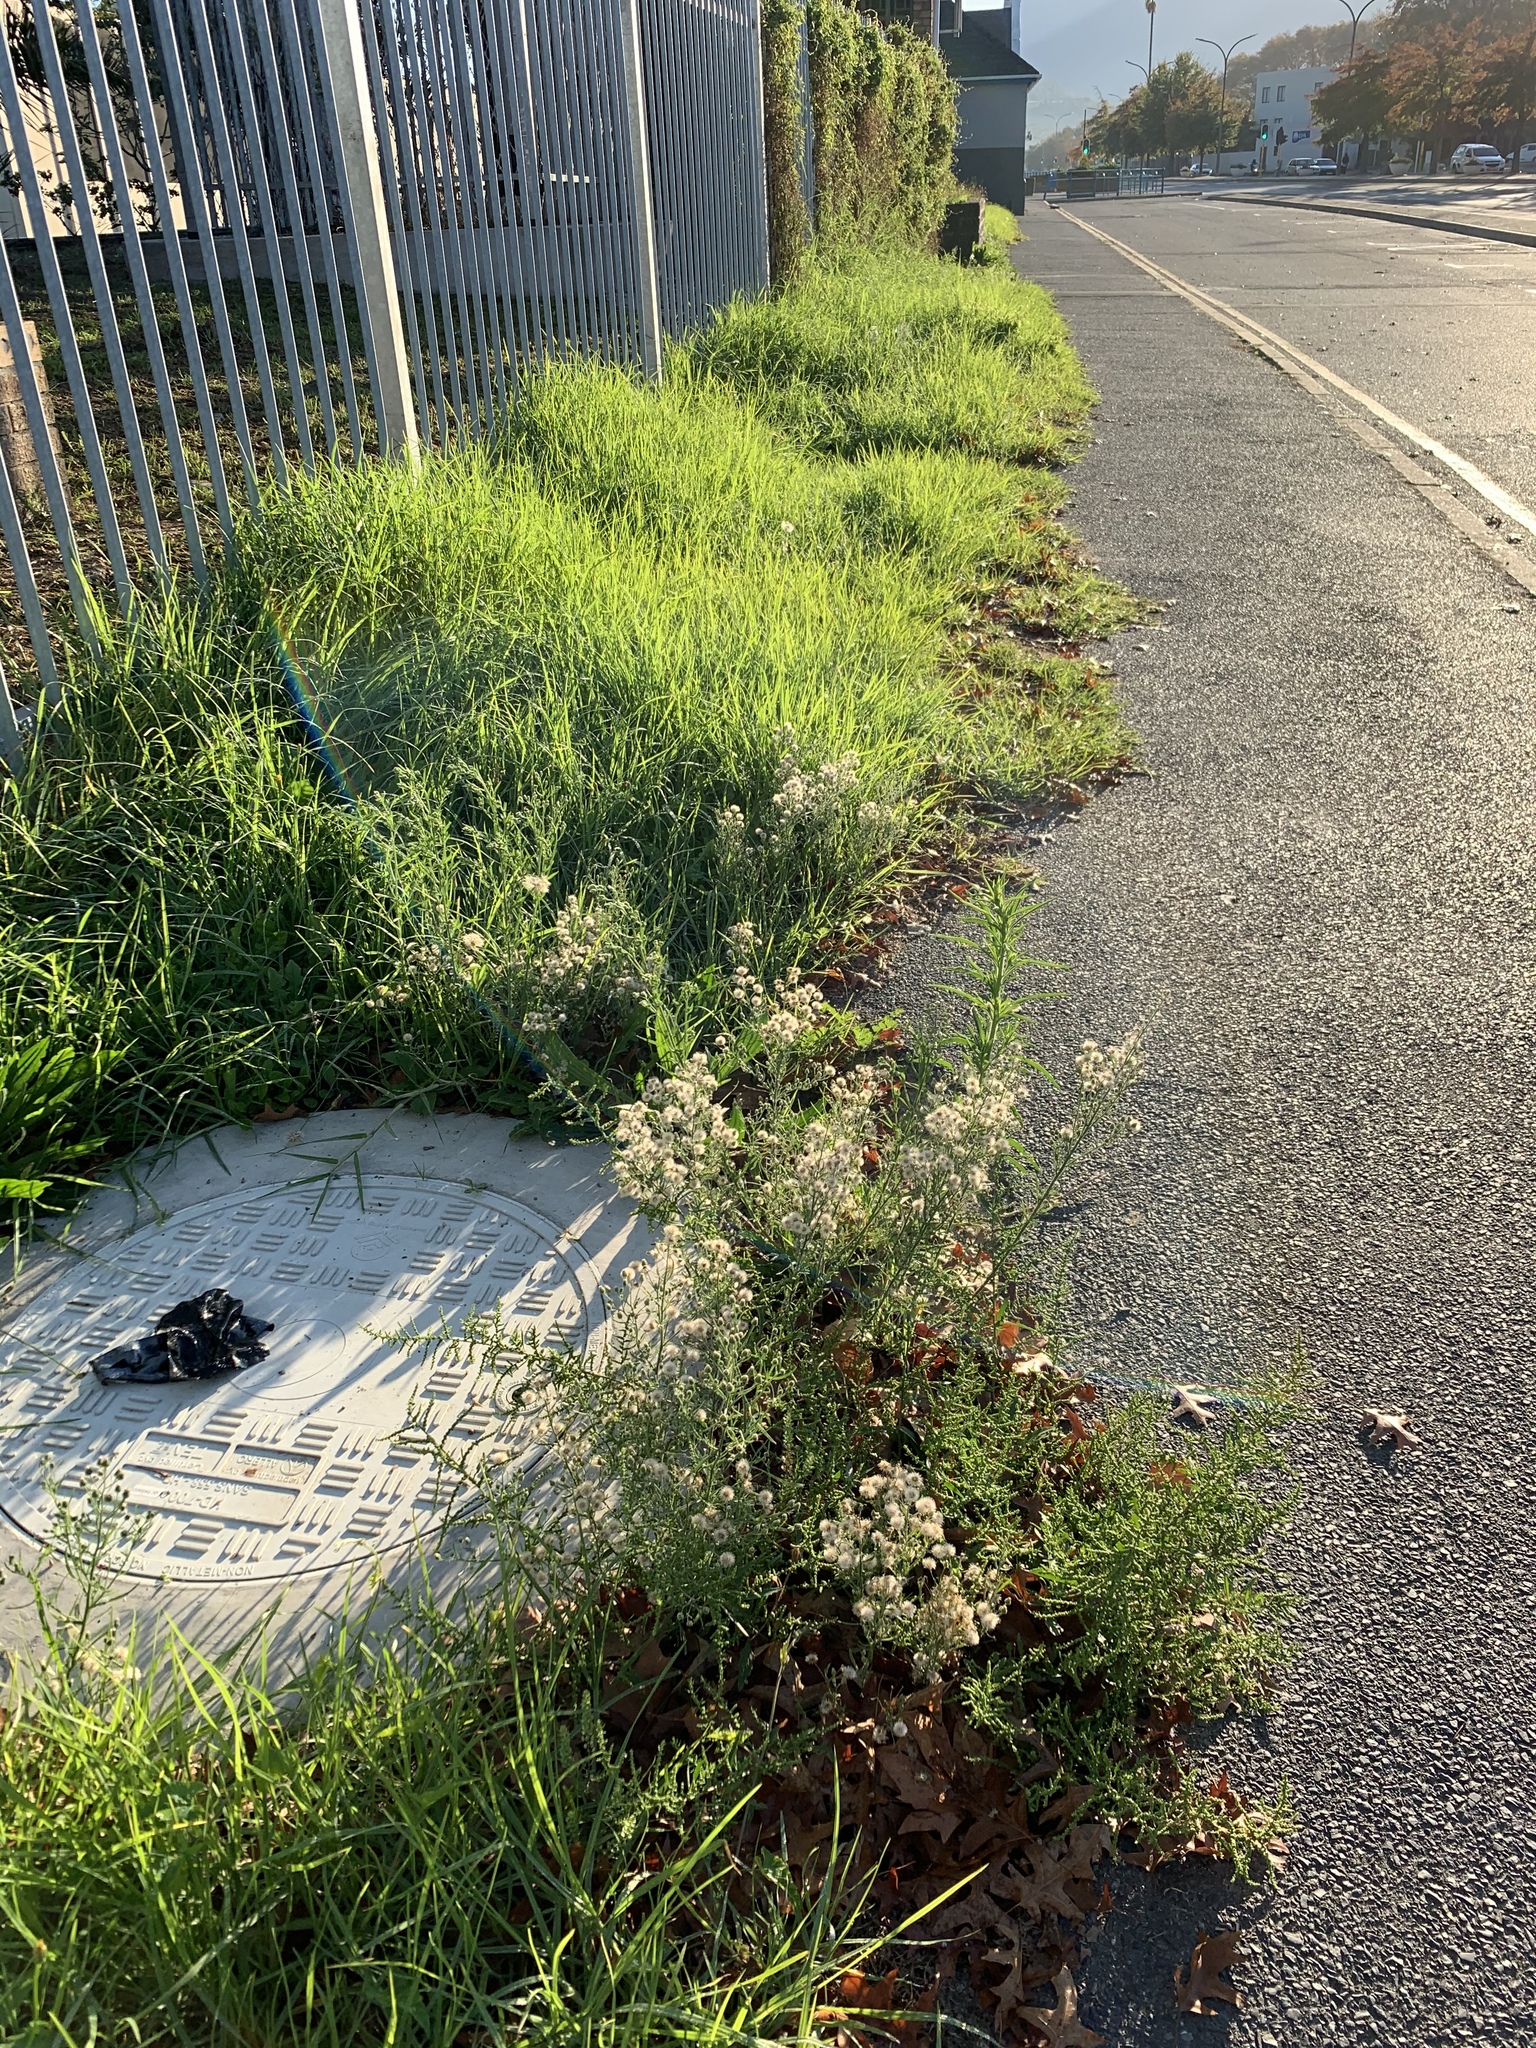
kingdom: Plantae
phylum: Tracheophyta
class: Magnoliopsida
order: Asterales
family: Asteraceae
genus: Erigeron
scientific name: Erigeron bonariensis
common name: Argentine fleabane
